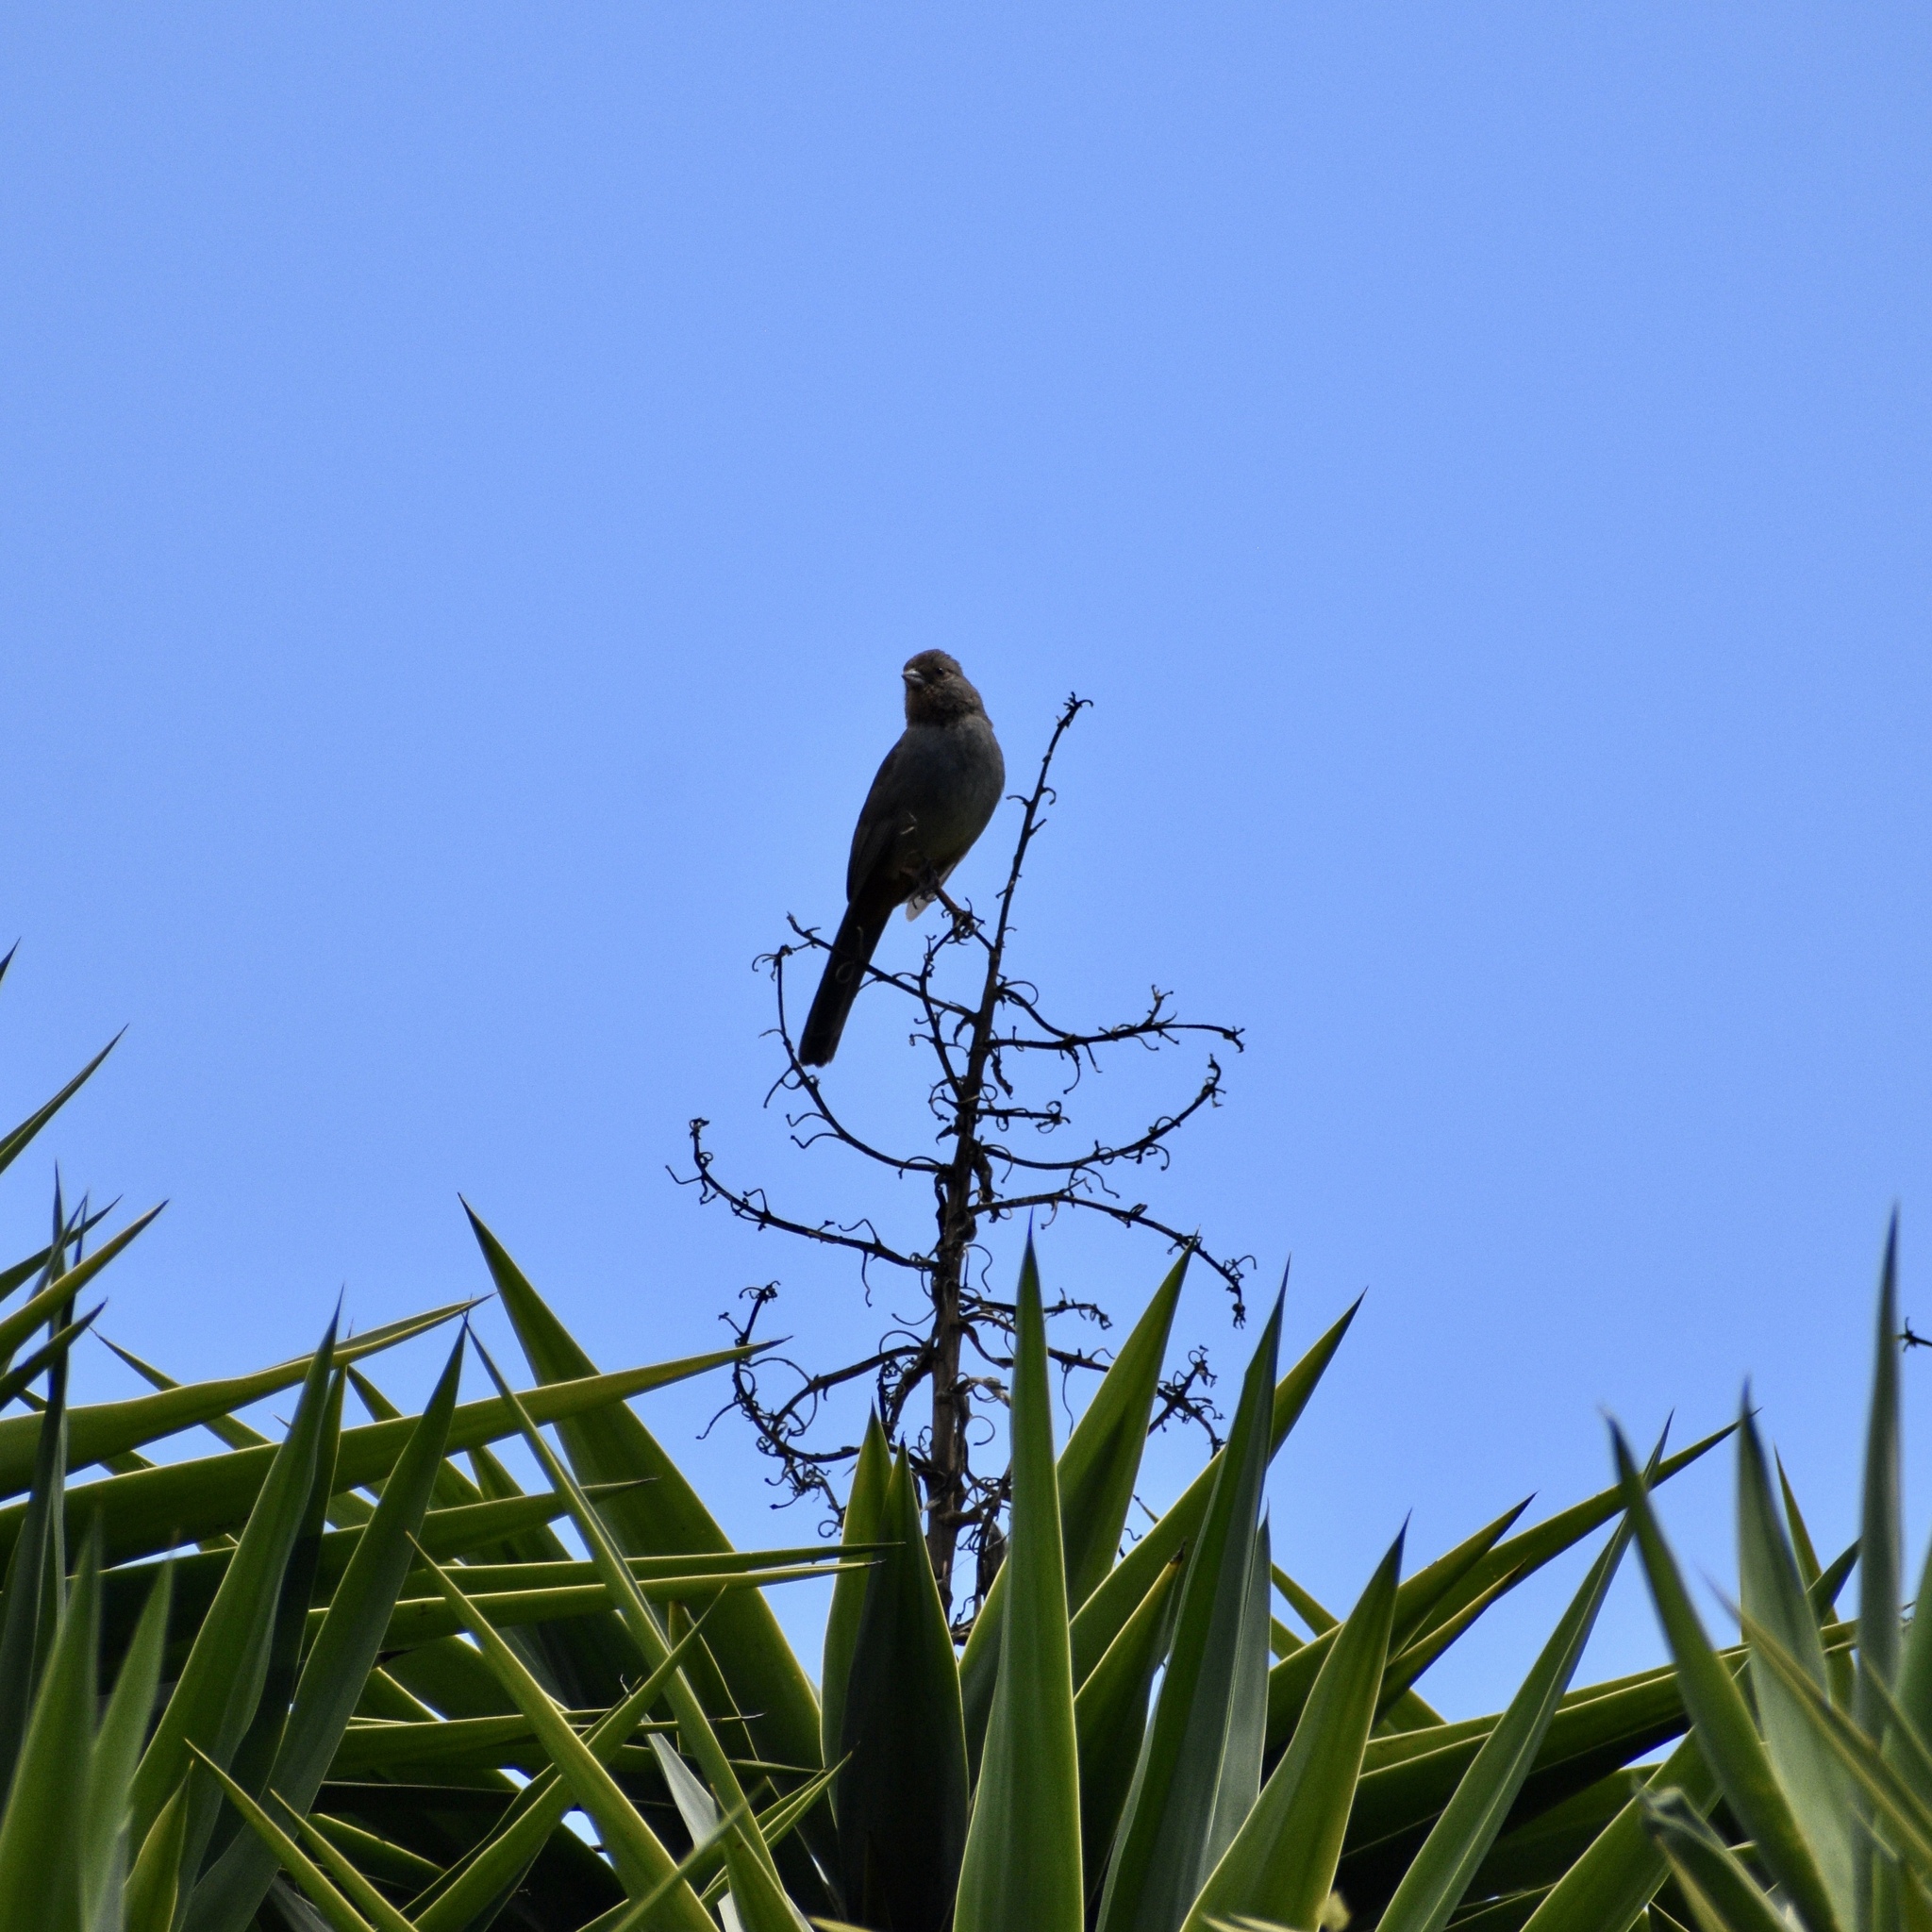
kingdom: Animalia
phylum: Chordata
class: Aves
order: Passeriformes
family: Passerellidae
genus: Melozone
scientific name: Melozone crissalis
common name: California towhee
